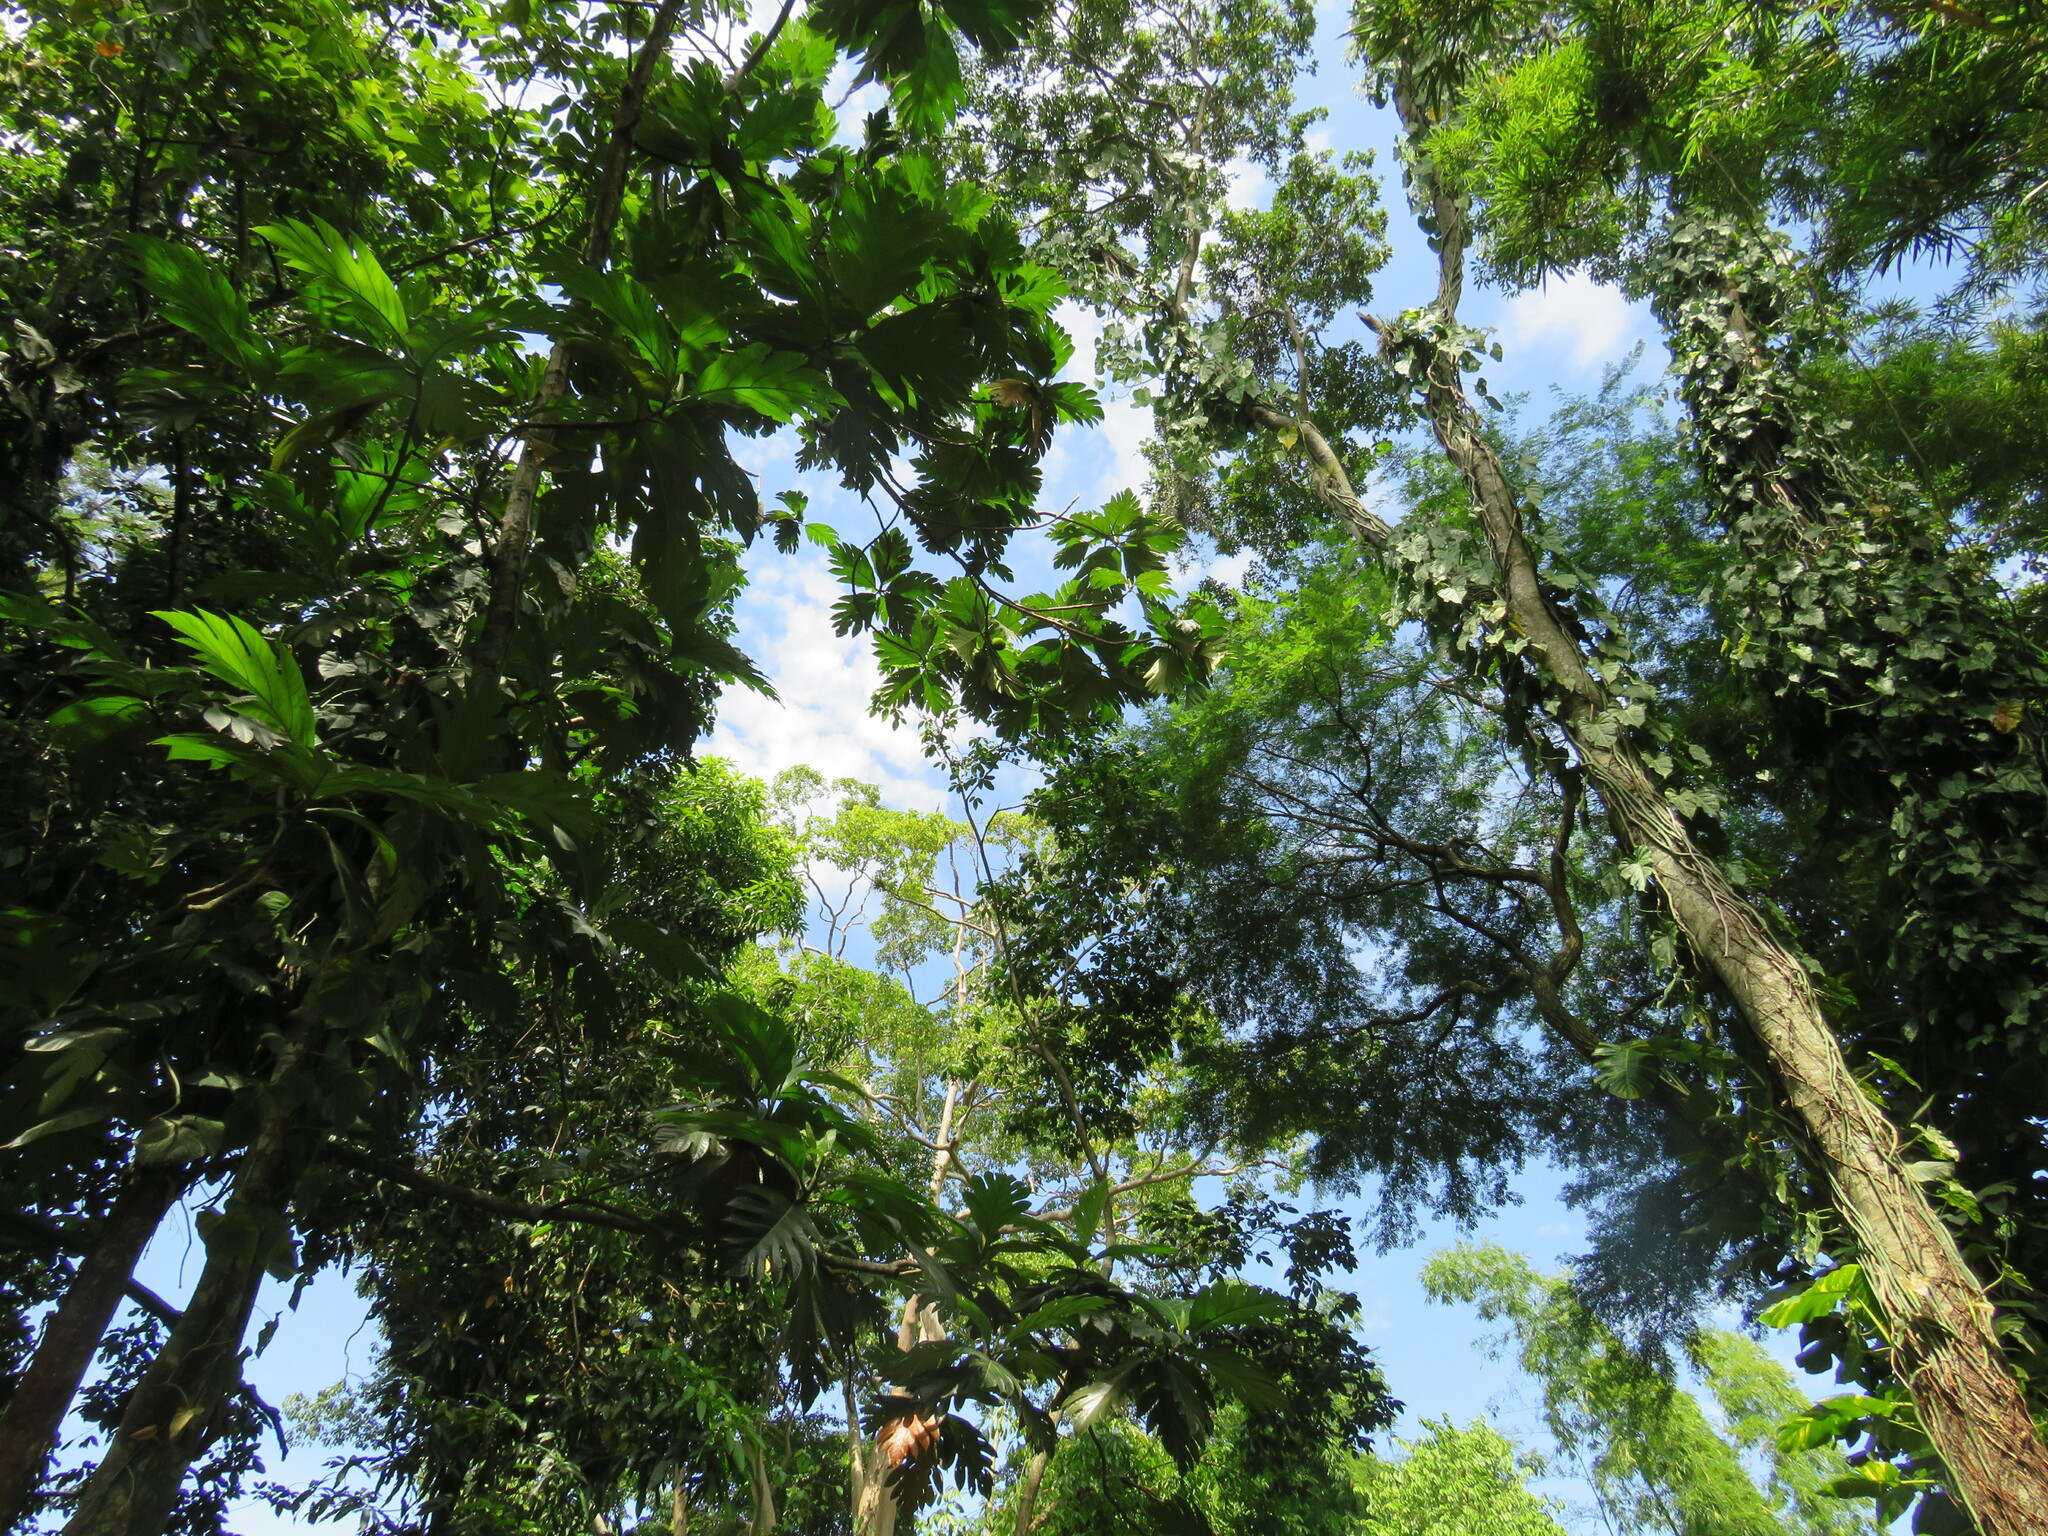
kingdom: Plantae
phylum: Tracheophyta
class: Magnoliopsida
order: Rosales
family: Moraceae
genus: Artocarpus
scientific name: Artocarpus altilis
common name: Breadfruit
